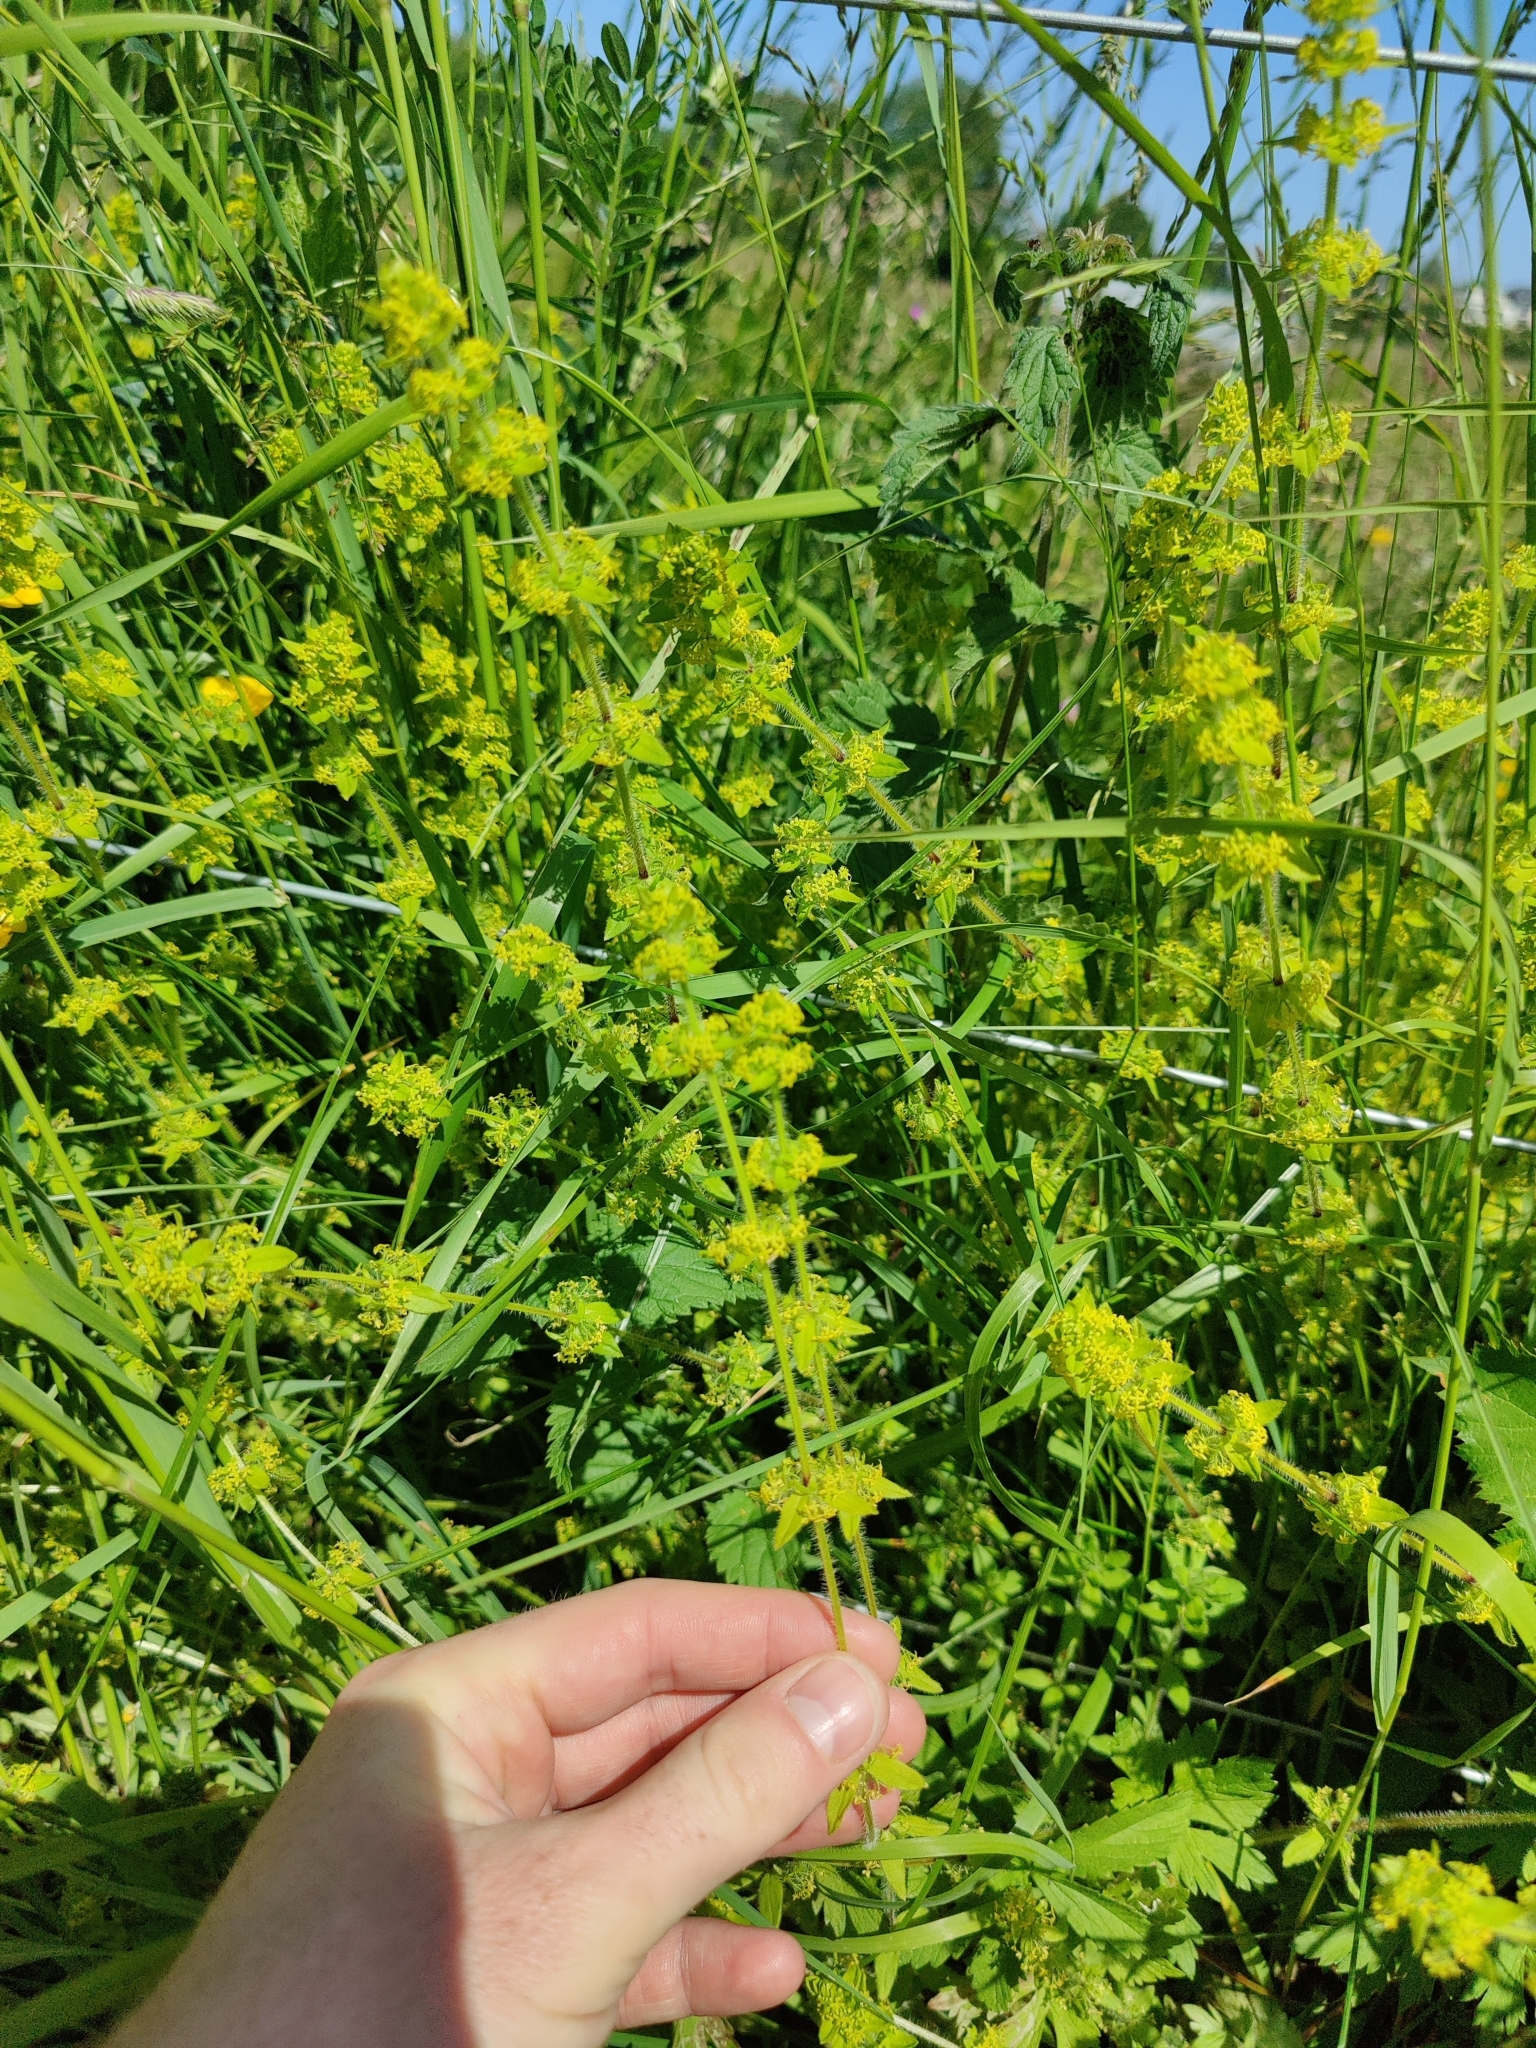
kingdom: Plantae
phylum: Tracheophyta
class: Magnoliopsida
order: Gentianales
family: Rubiaceae
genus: Cruciata
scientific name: Cruciata laevipes
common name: Crosswort
